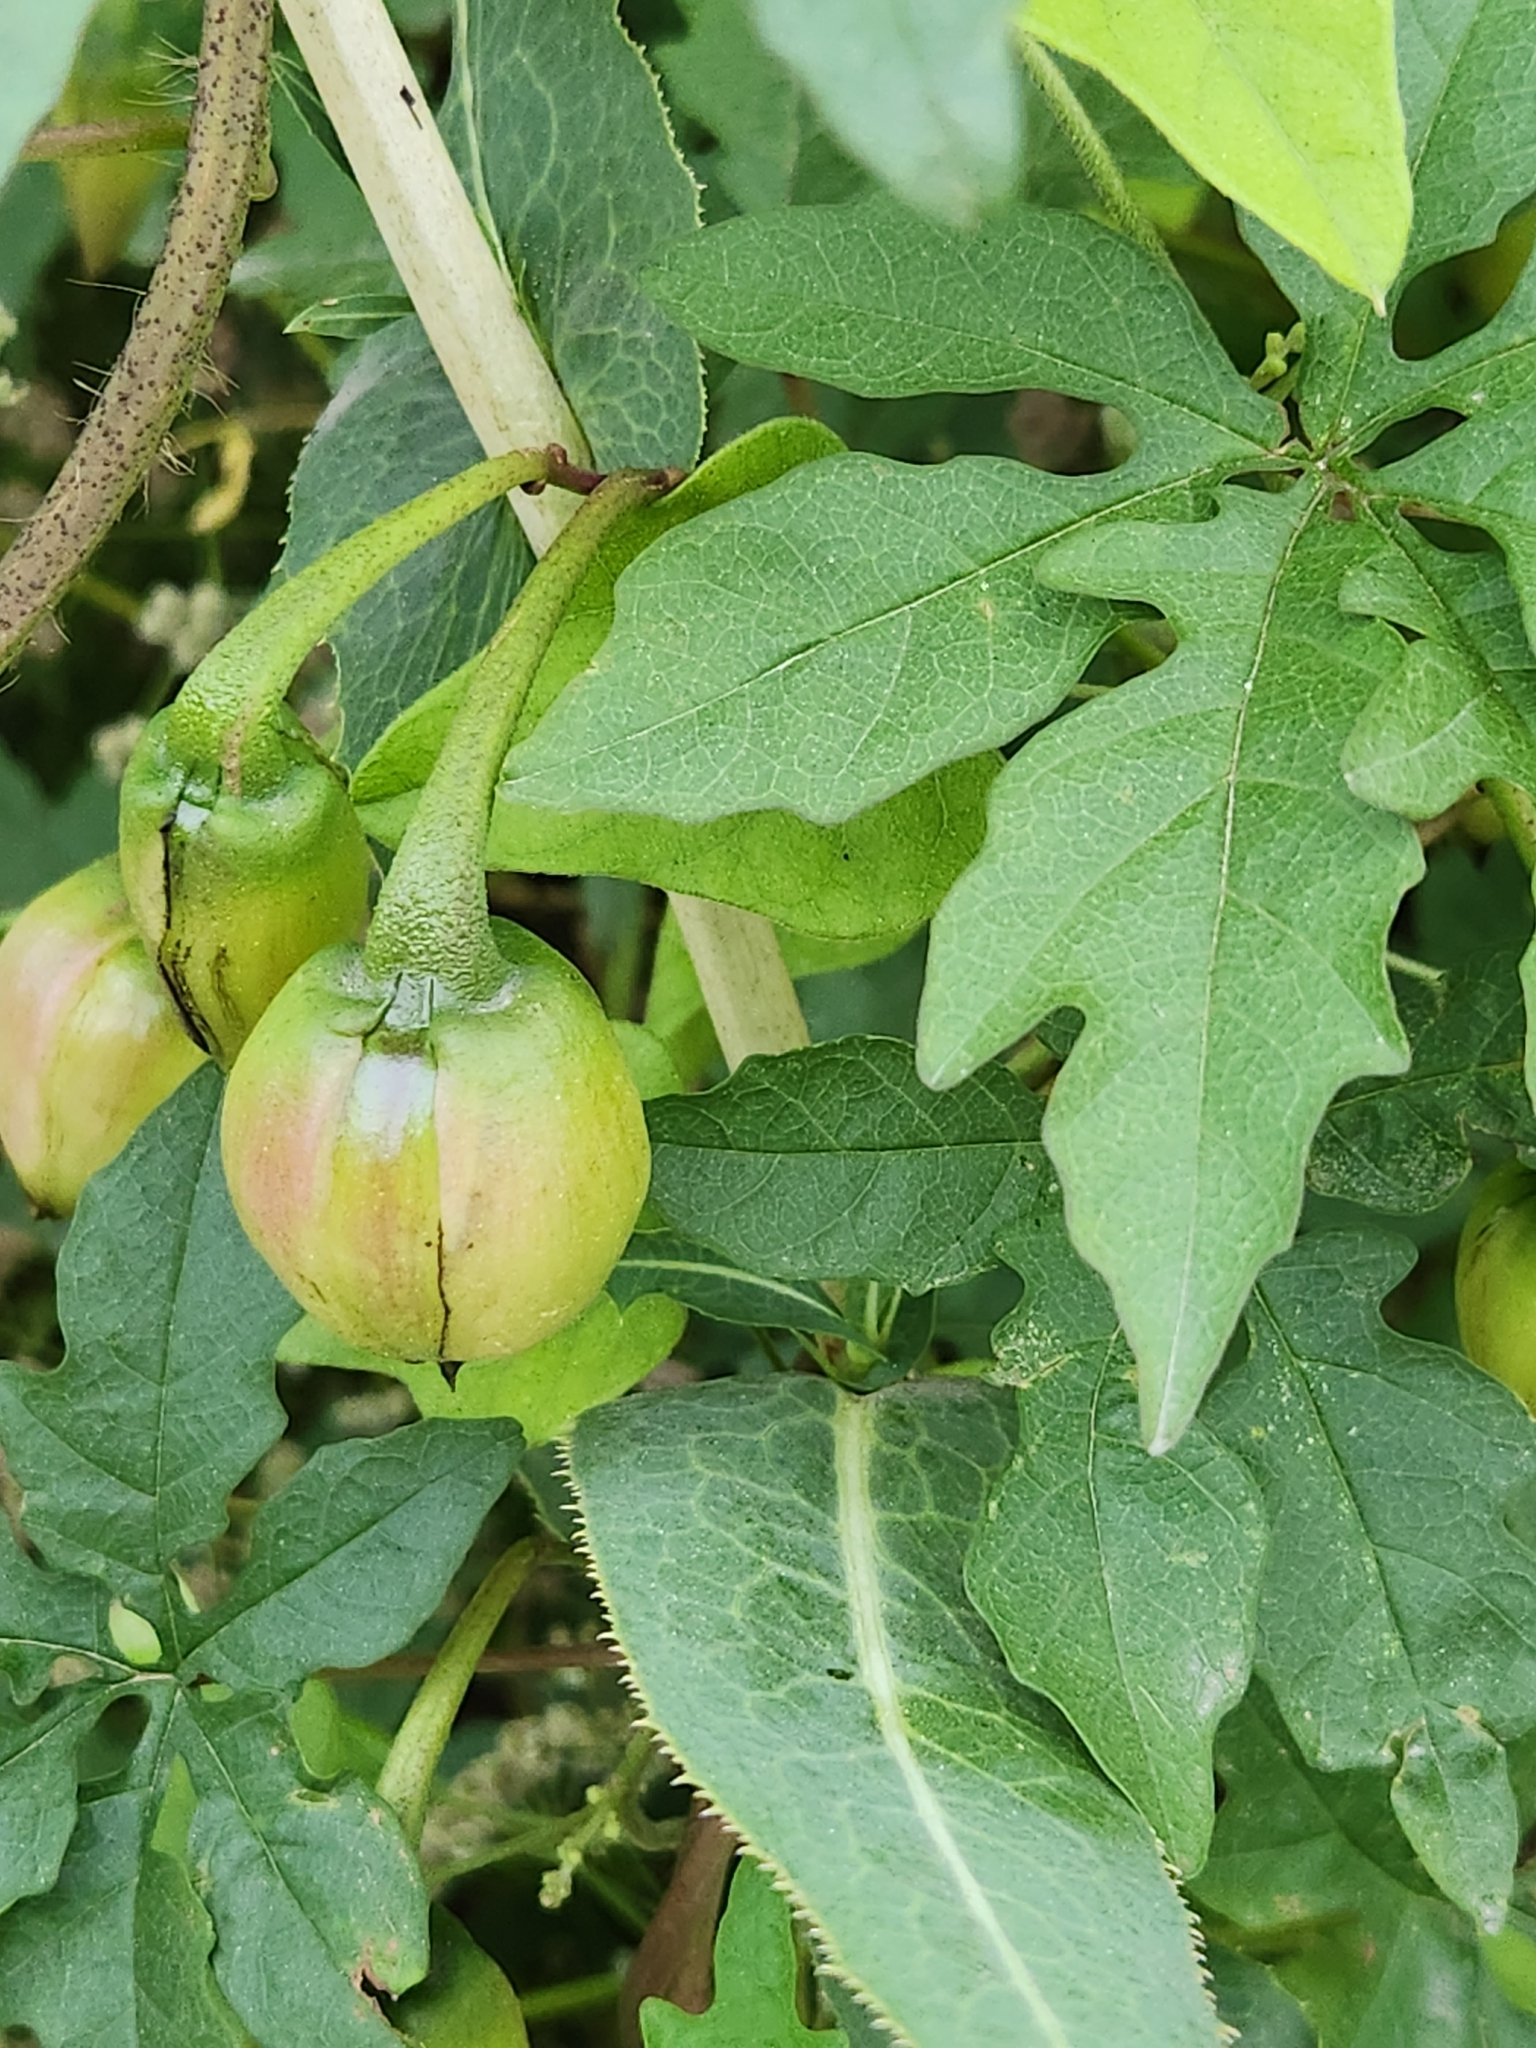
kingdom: Plantae
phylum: Tracheophyta
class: Magnoliopsida
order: Solanales
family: Convolvulaceae
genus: Distimake
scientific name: Distimake dissectus
